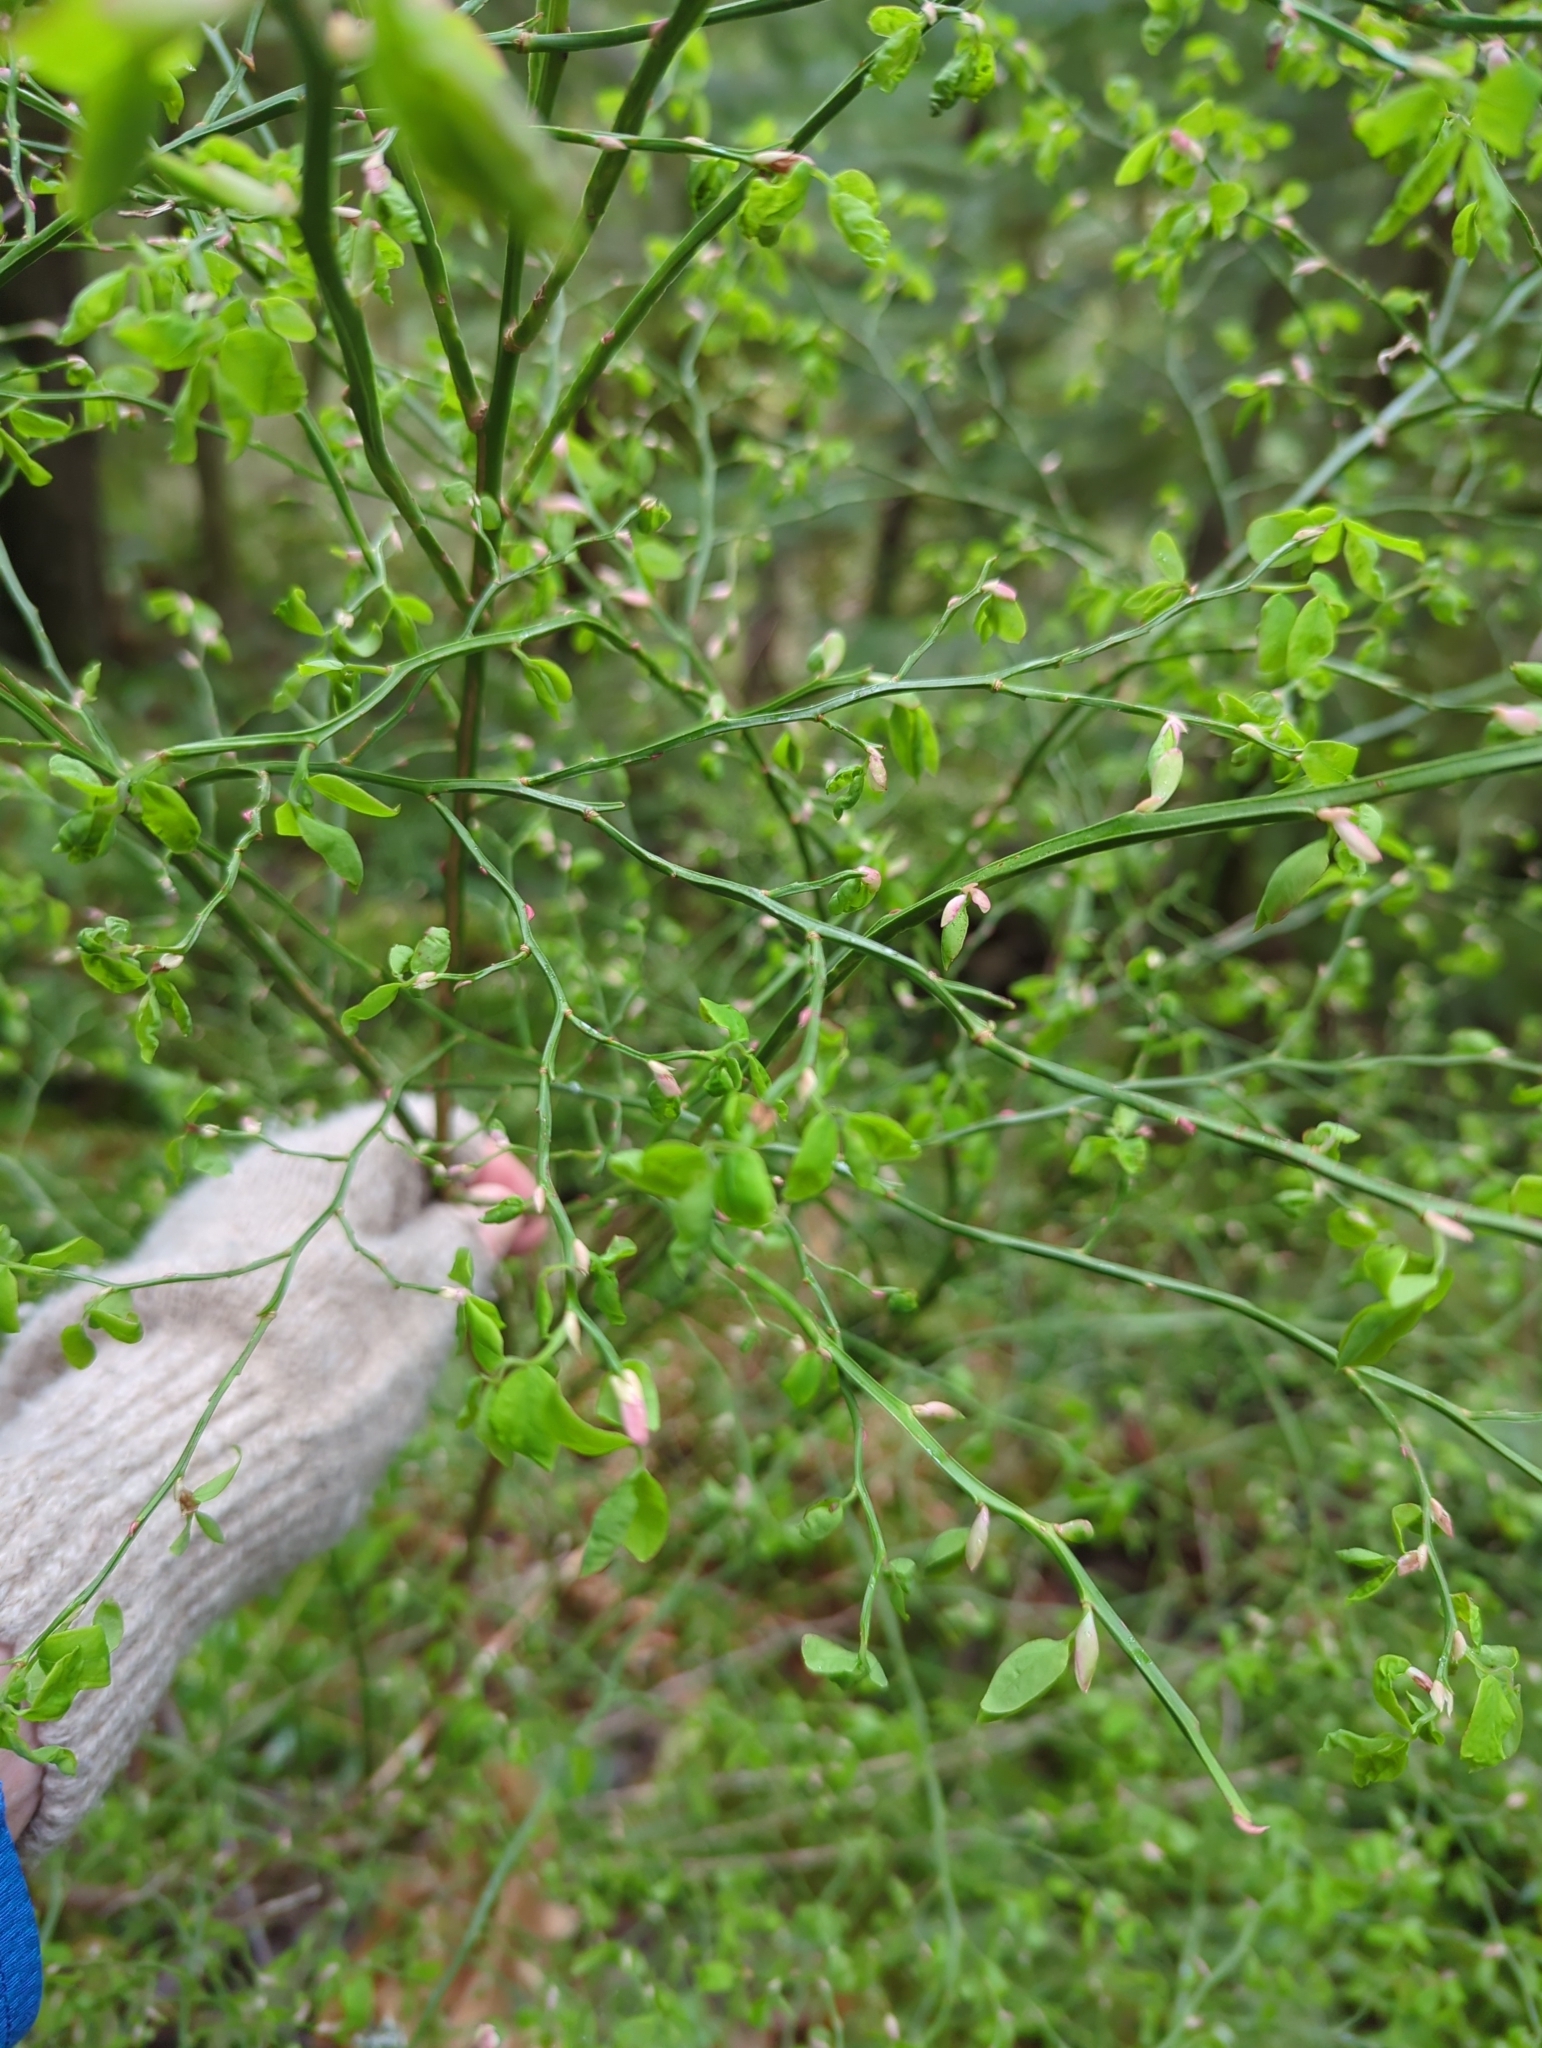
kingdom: Plantae
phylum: Tracheophyta
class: Magnoliopsida
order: Ericales
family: Ericaceae
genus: Vaccinium
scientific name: Vaccinium parvifolium
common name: Red-huckleberry
